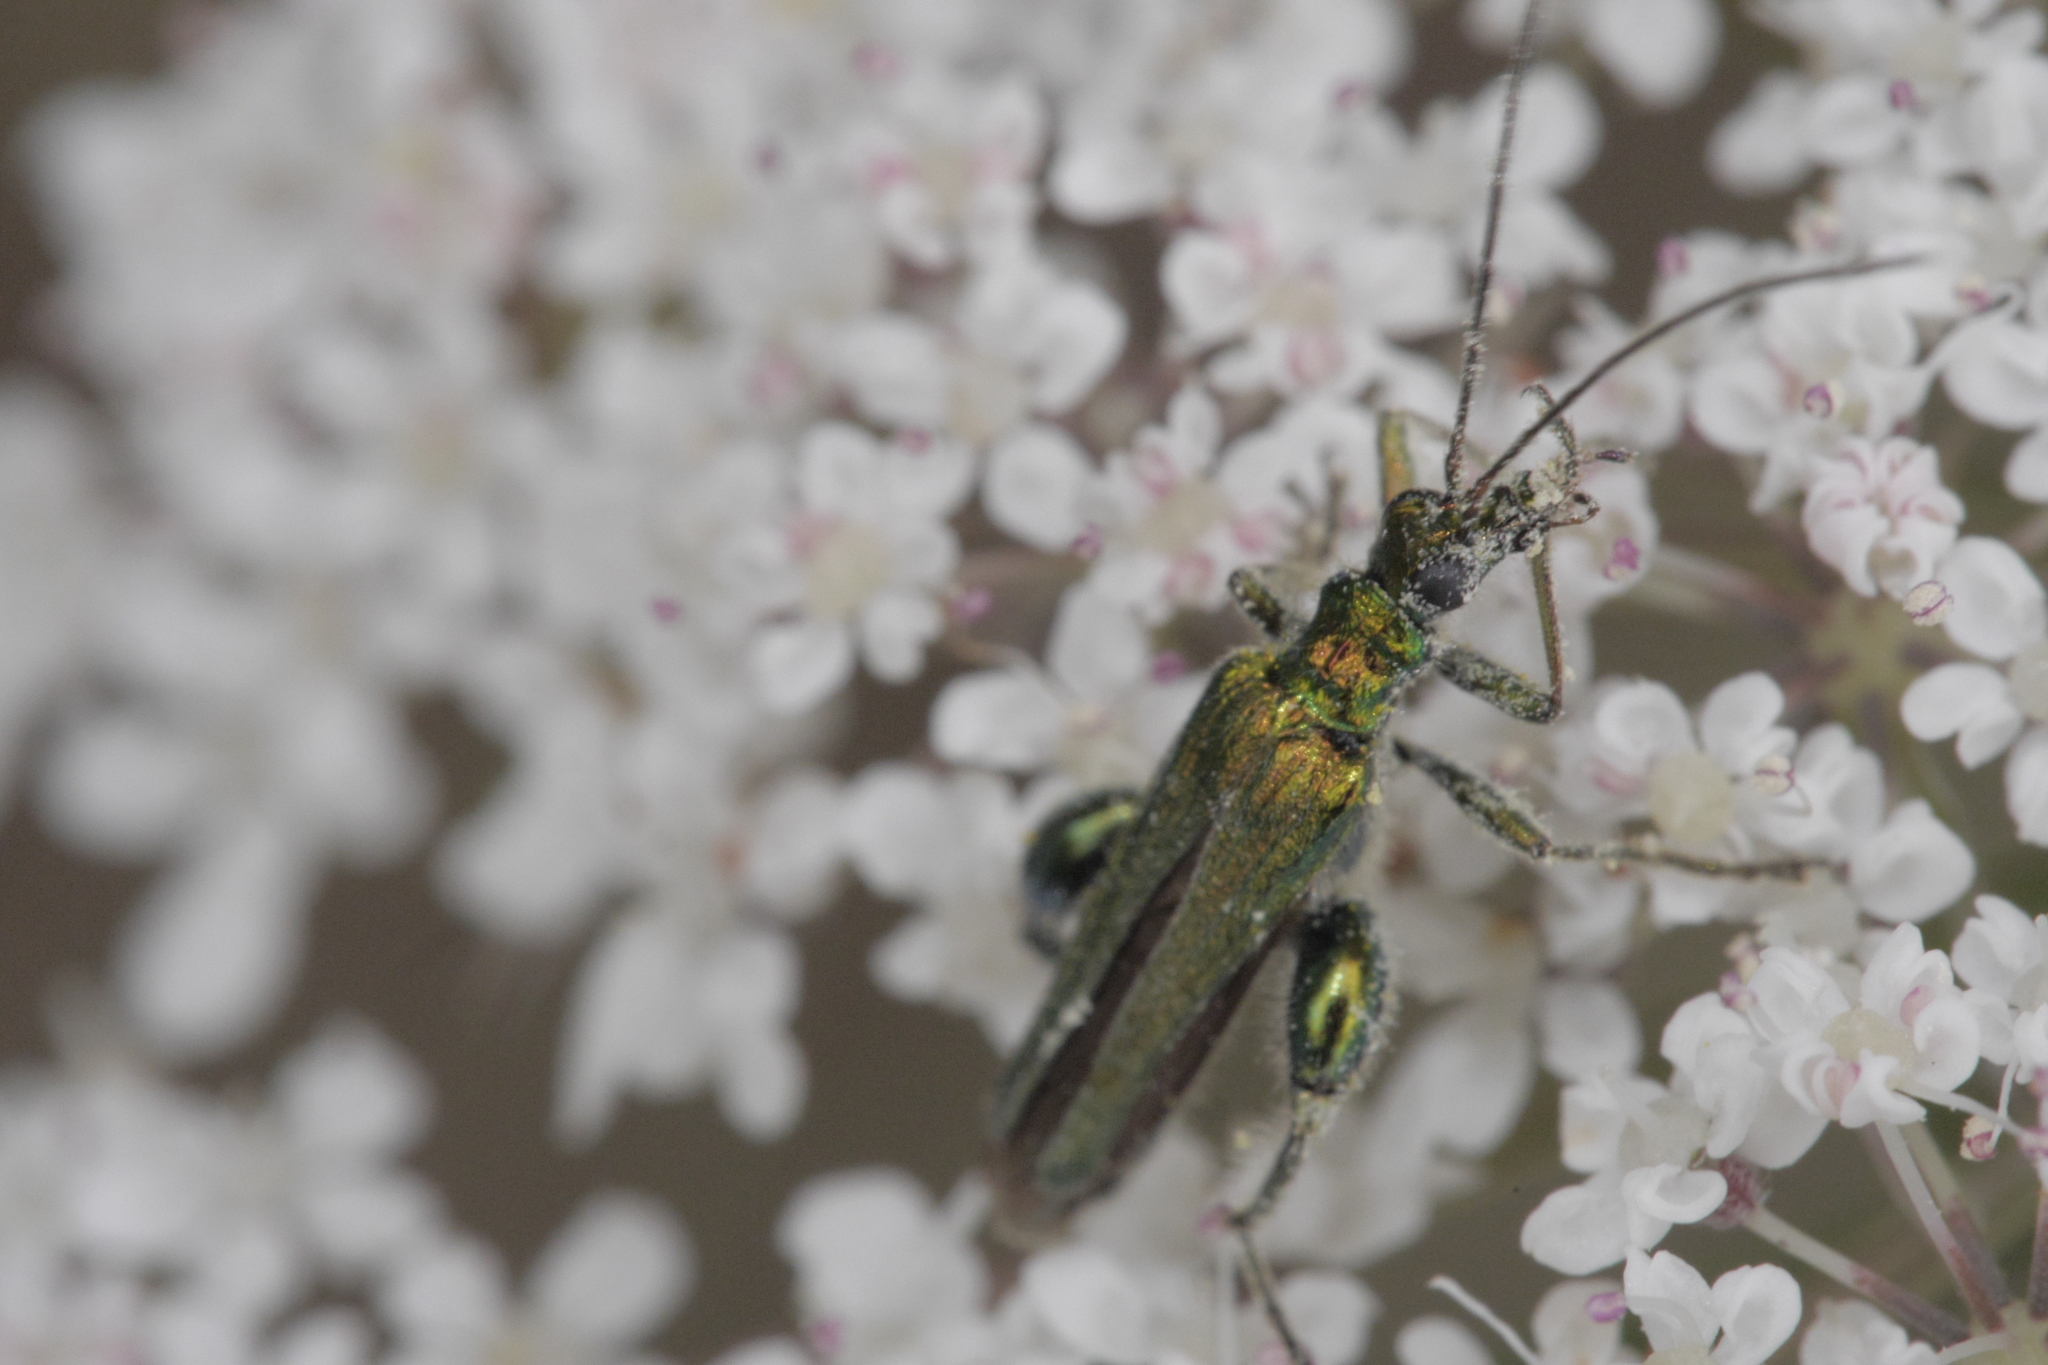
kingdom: Animalia
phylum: Arthropoda
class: Insecta
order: Coleoptera
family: Oedemeridae
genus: Oedemera
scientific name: Oedemera nobilis
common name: Swollen-thighed beetle
